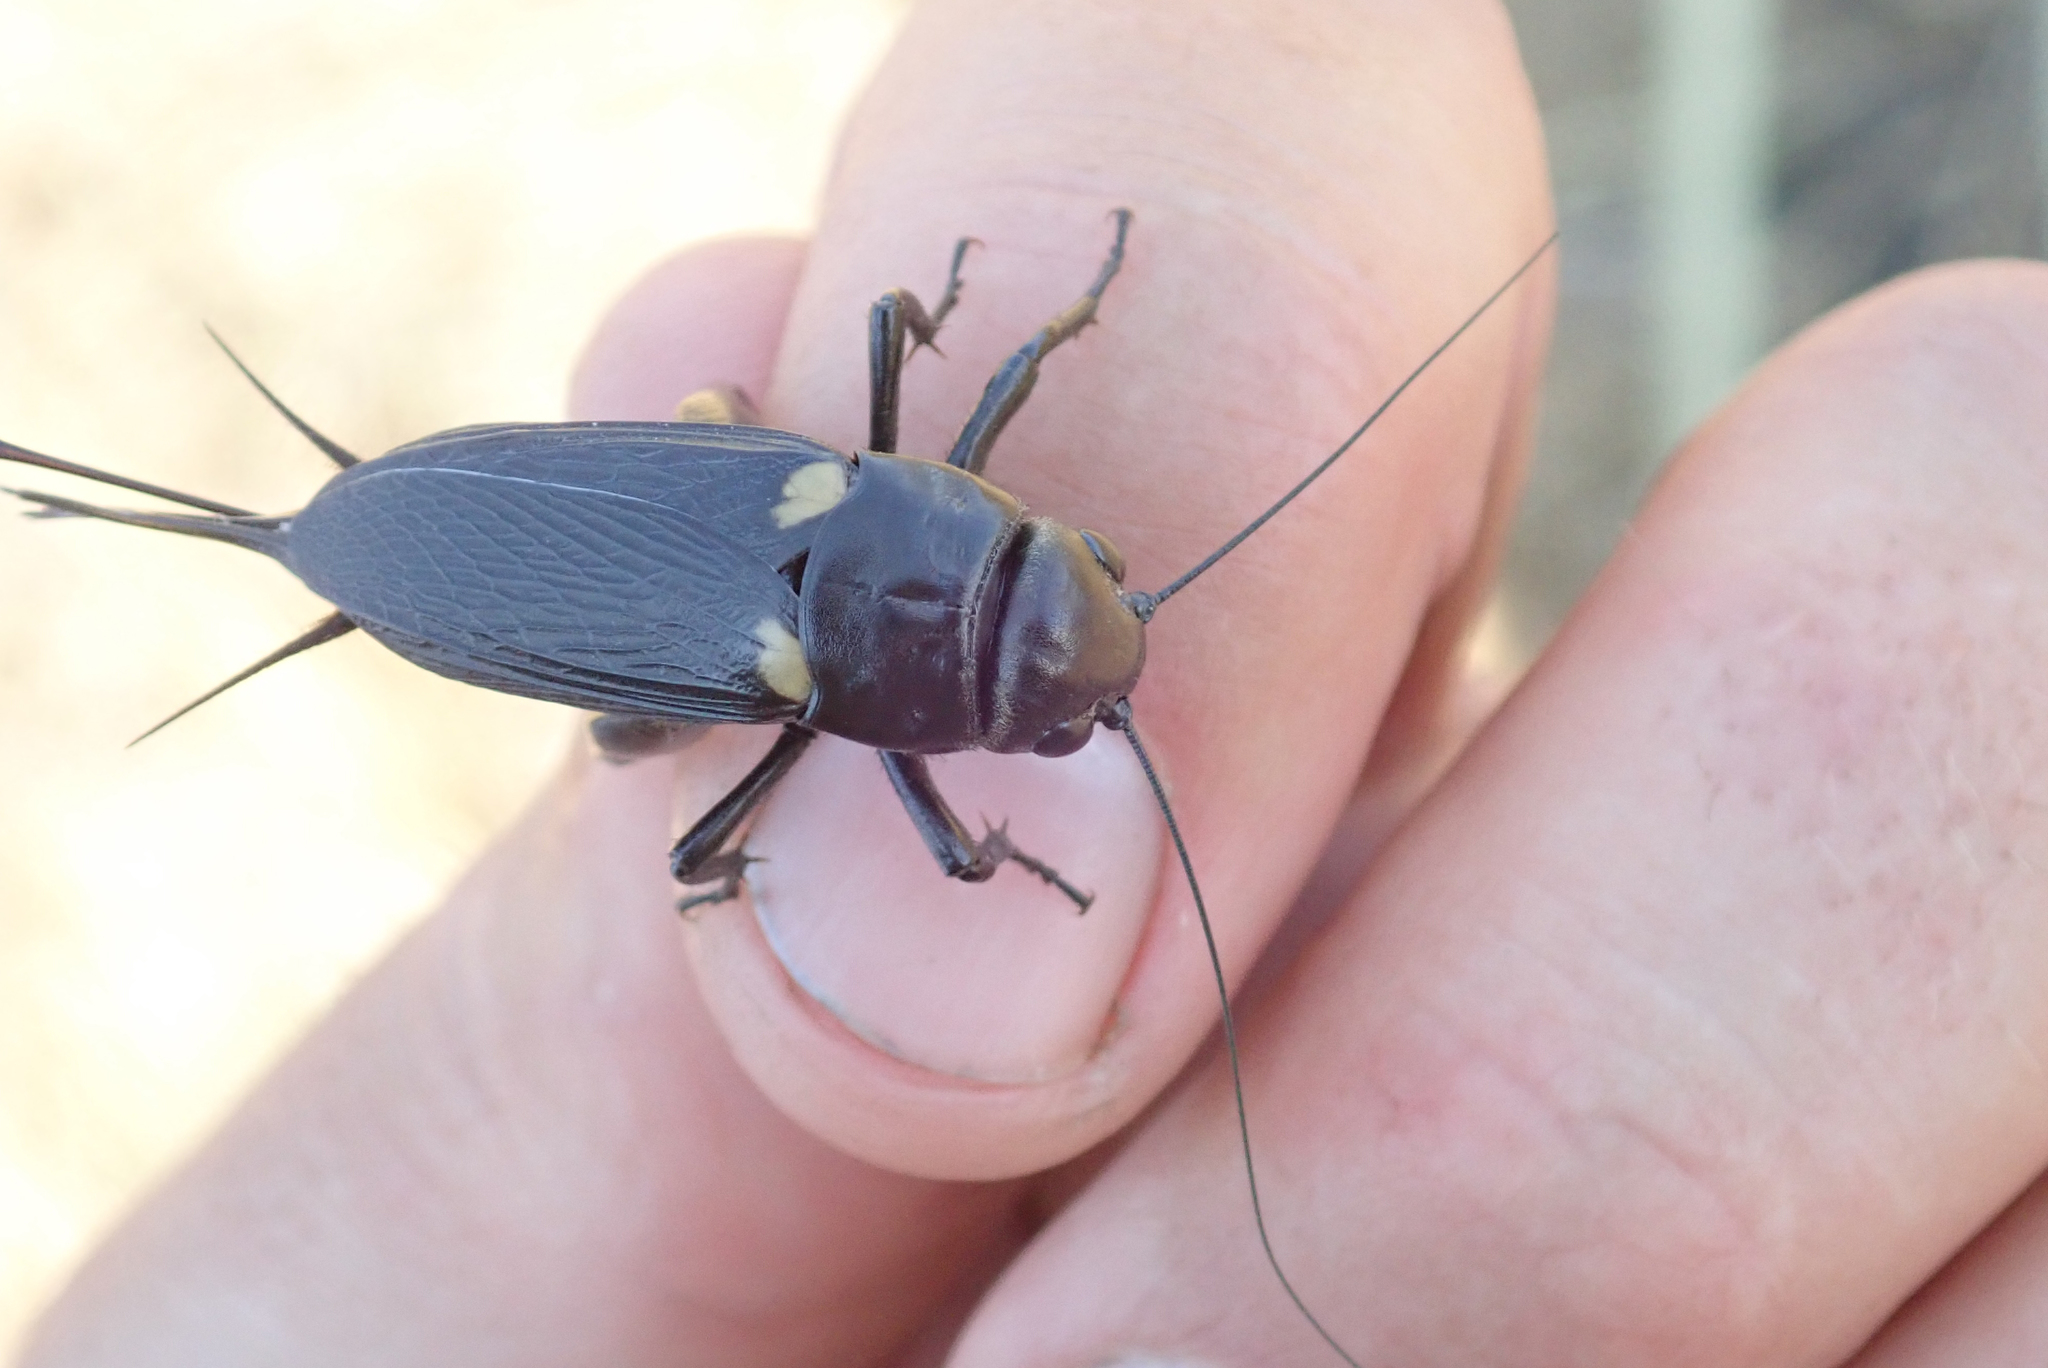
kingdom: Animalia
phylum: Arthropoda
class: Insecta
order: Orthoptera
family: Gryllidae
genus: Gryllus
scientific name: Gryllus bimaculatus
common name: Two-spotted cricket
